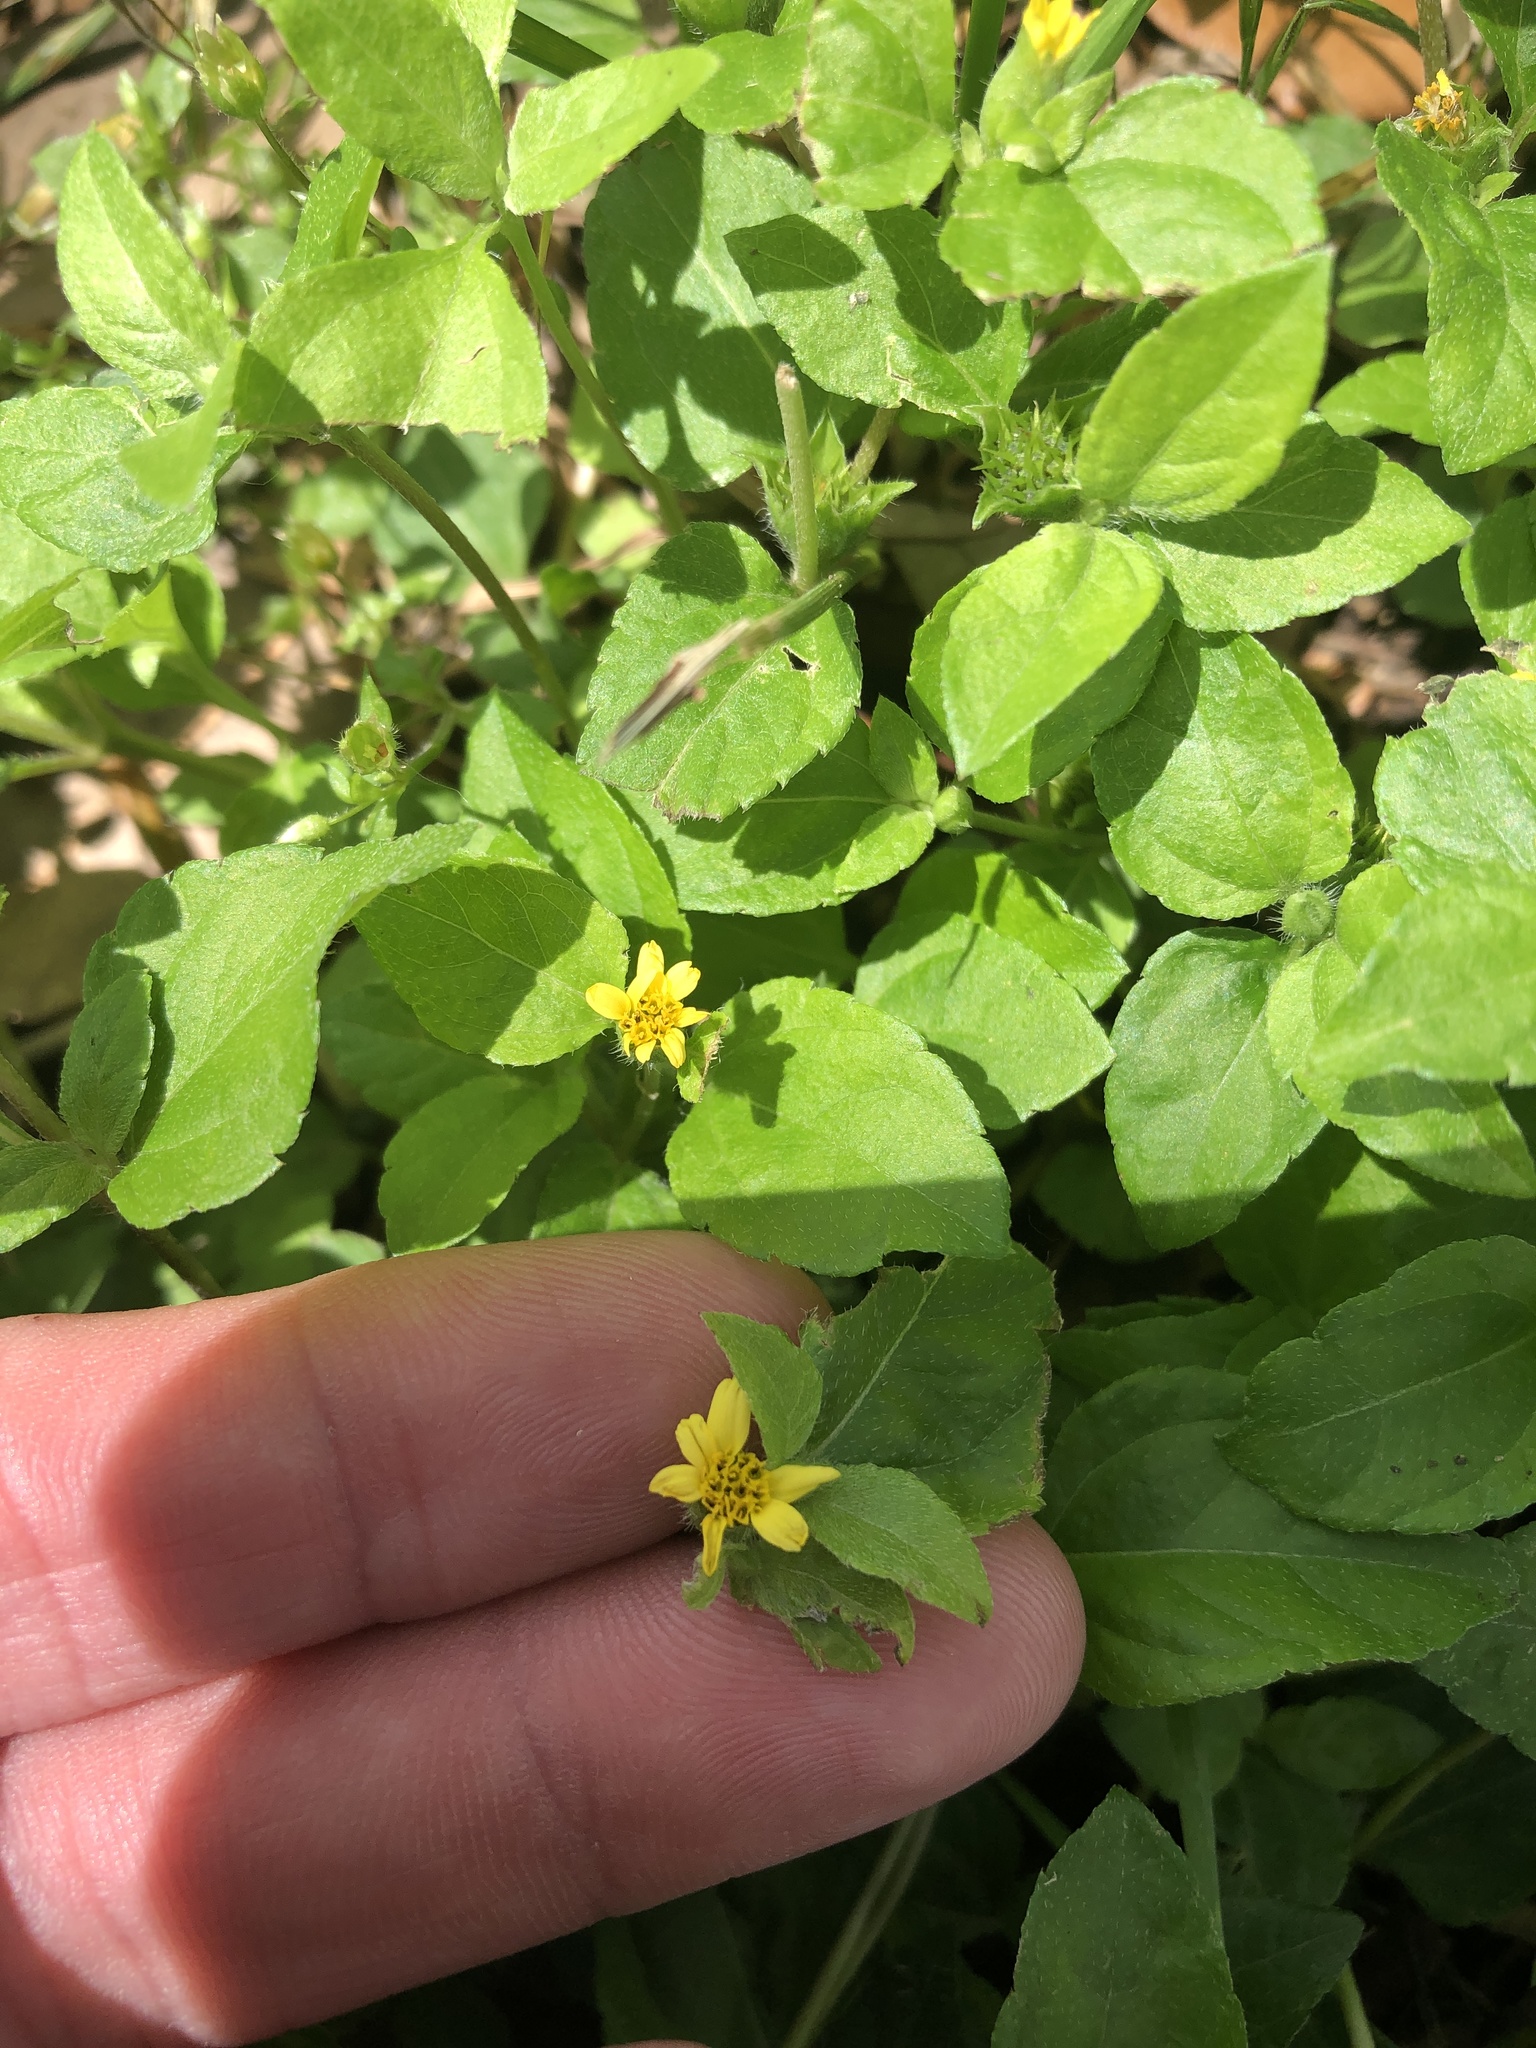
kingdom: Plantae
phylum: Tracheophyta
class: Magnoliopsida
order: Asterales
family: Asteraceae
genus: Calyptocarpus
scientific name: Calyptocarpus vialis
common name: Straggler daisy
